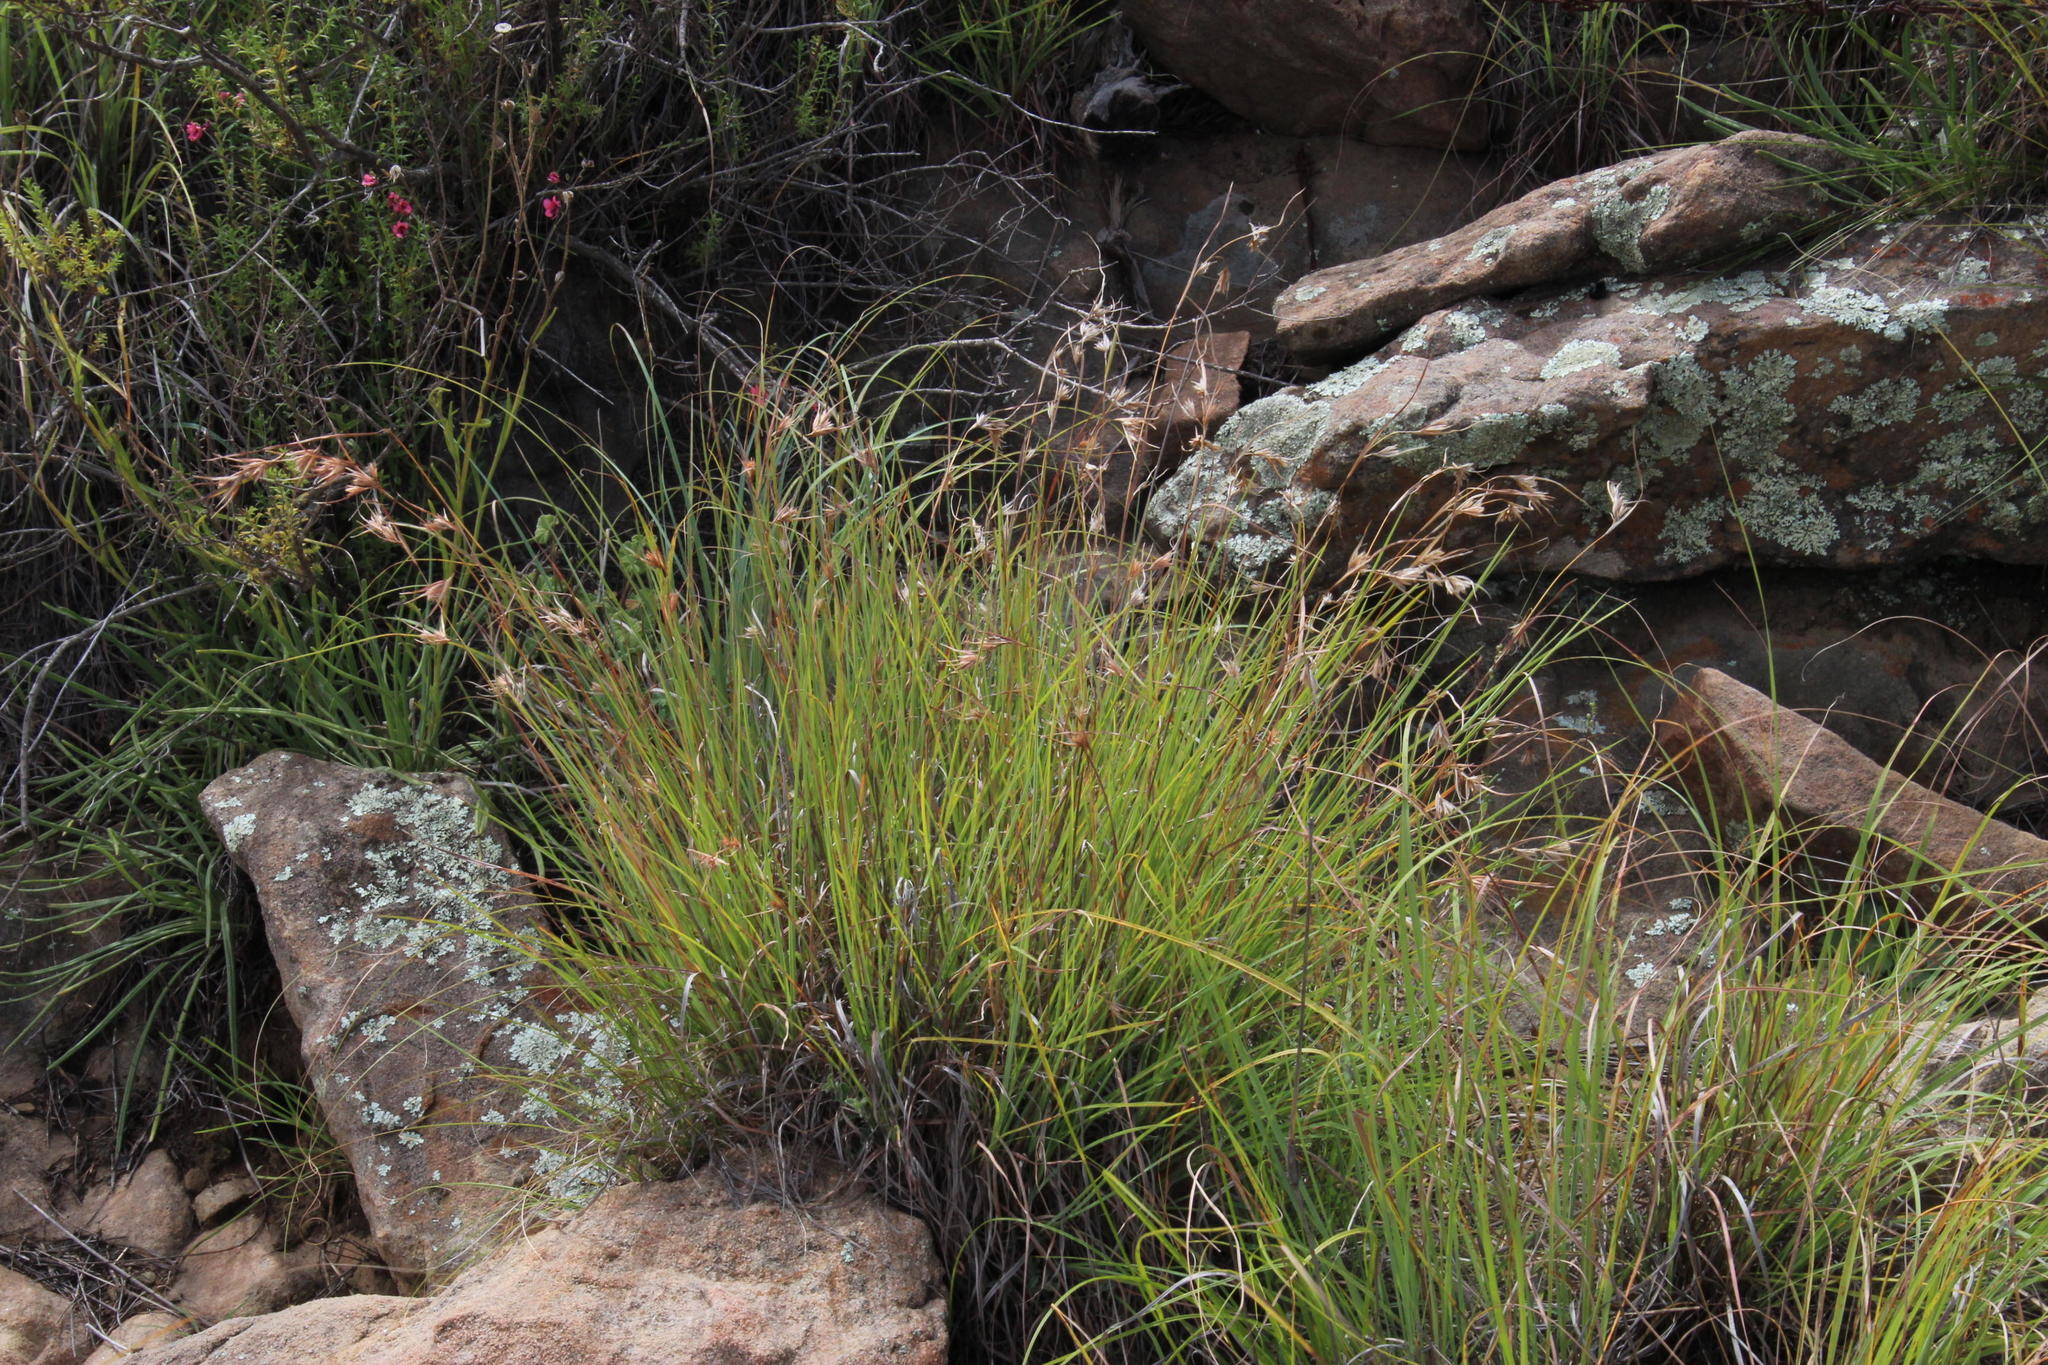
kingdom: Plantae
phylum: Tracheophyta
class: Liliopsida
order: Poales
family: Poaceae
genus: Themeda
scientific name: Themeda triandra
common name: Kangaroo grass
